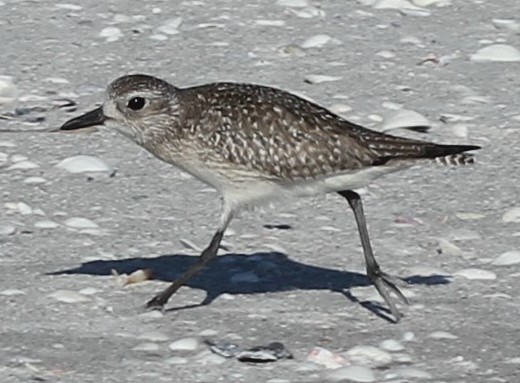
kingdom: Animalia
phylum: Chordata
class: Aves
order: Charadriiformes
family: Charadriidae
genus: Pluvialis
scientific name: Pluvialis squatarola
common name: Grey plover
